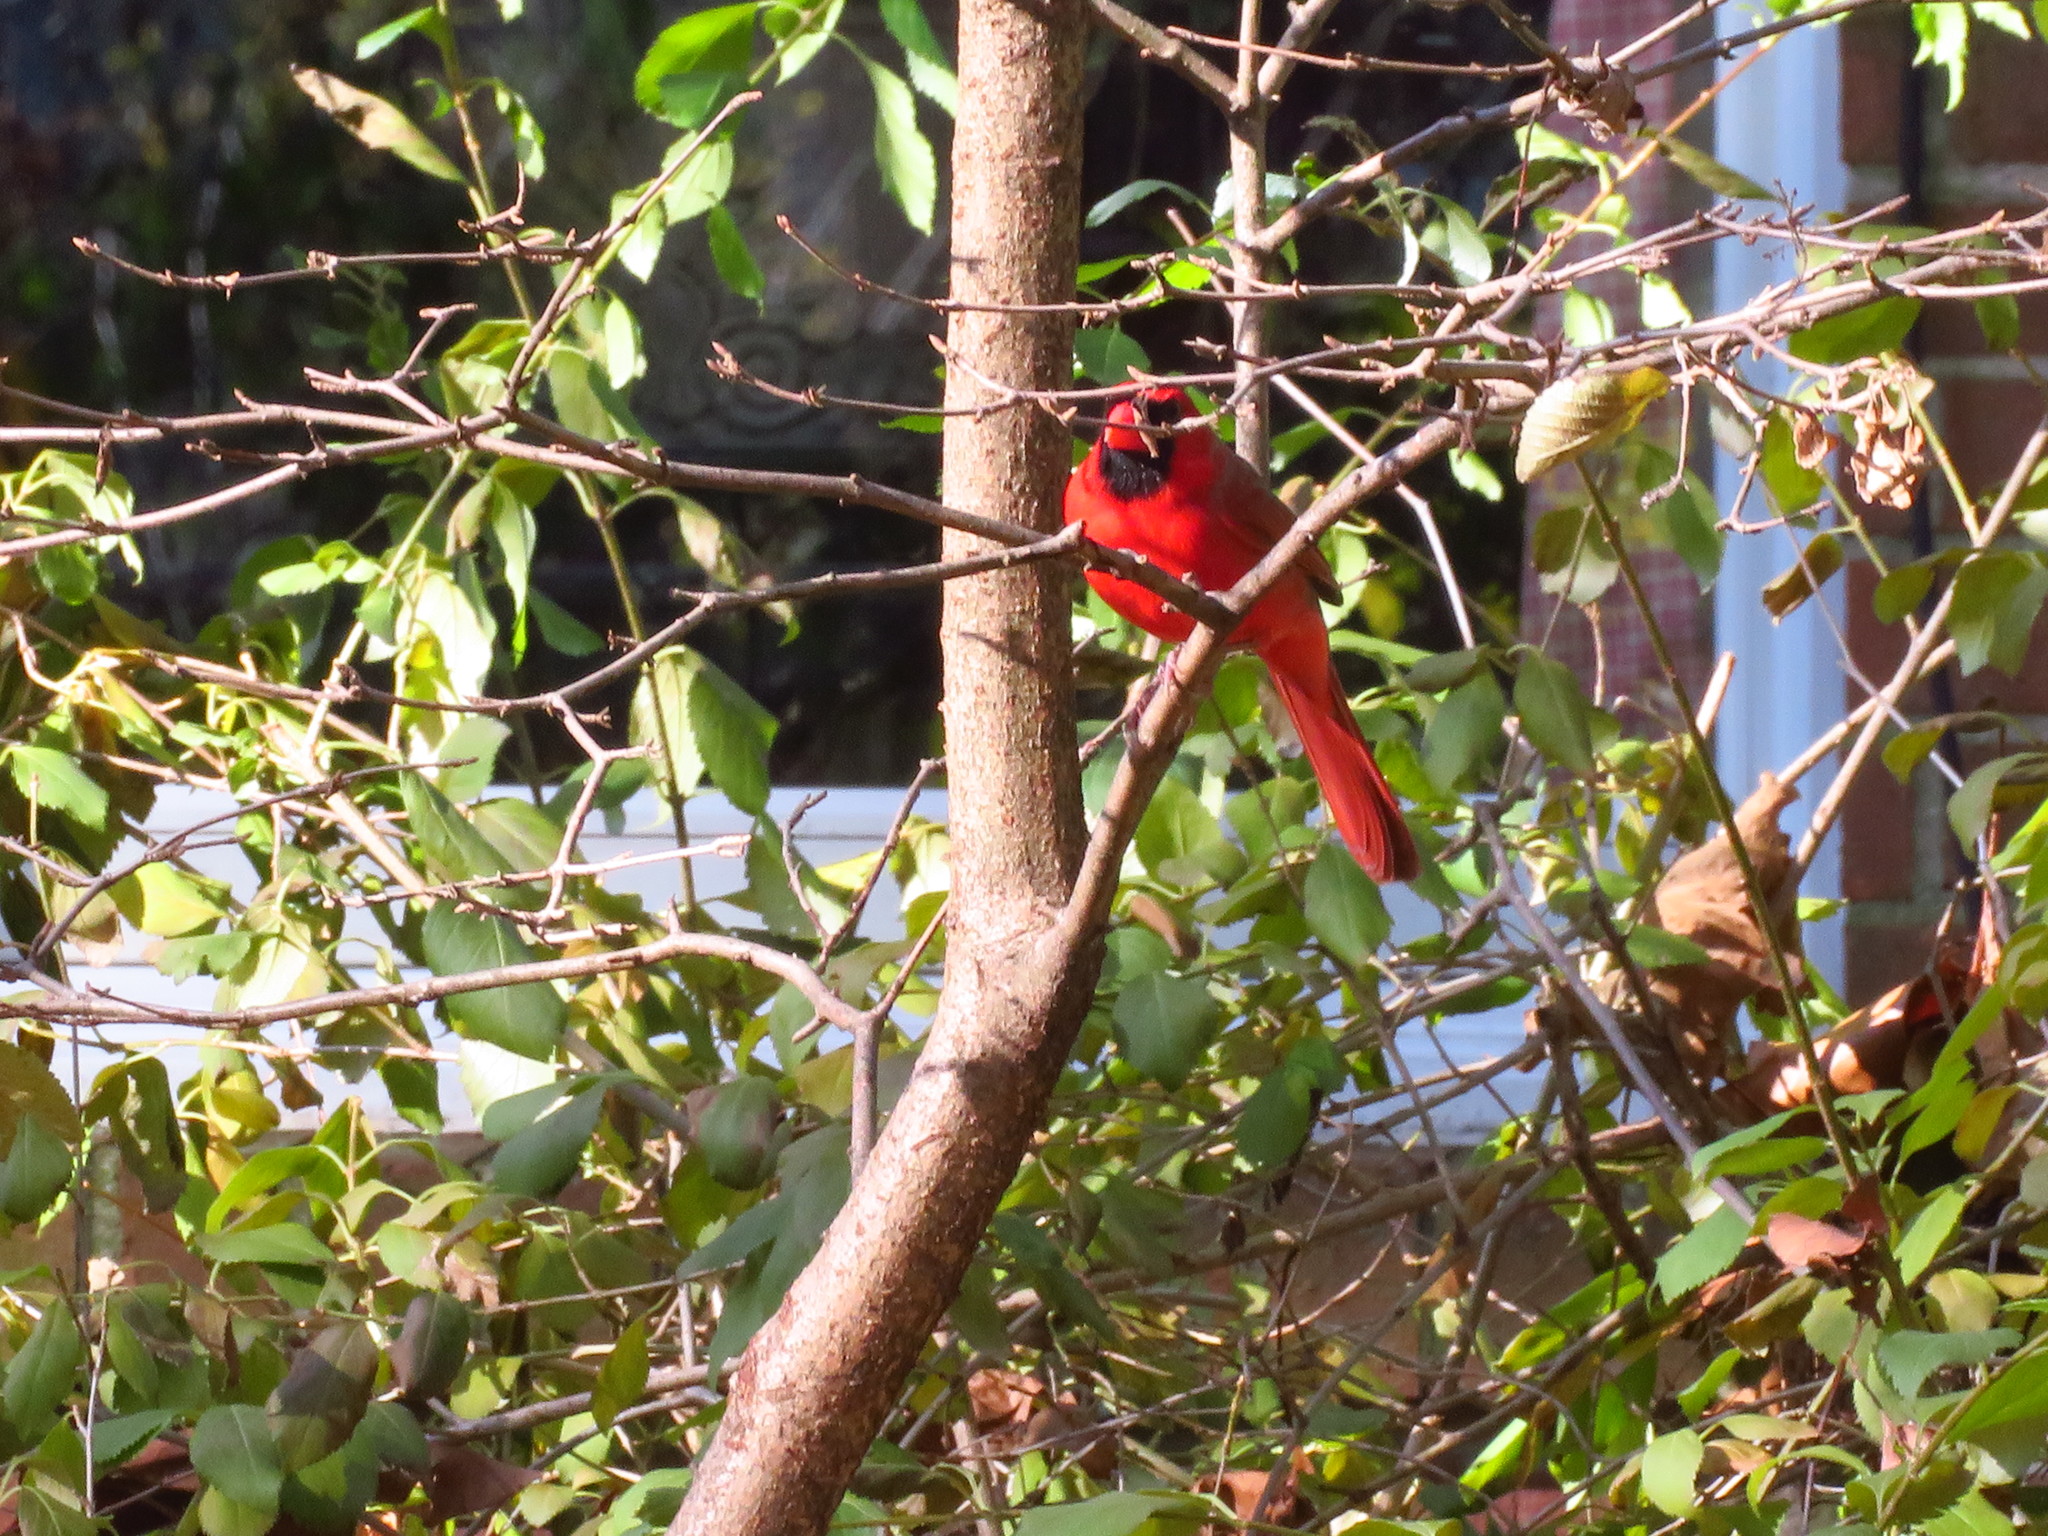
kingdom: Animalia
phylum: Chordata
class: Aves
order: Passeriformes
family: Cardinalidae
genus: Cardinalis
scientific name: Cardinalis cardinalis
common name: Northern cardinal
